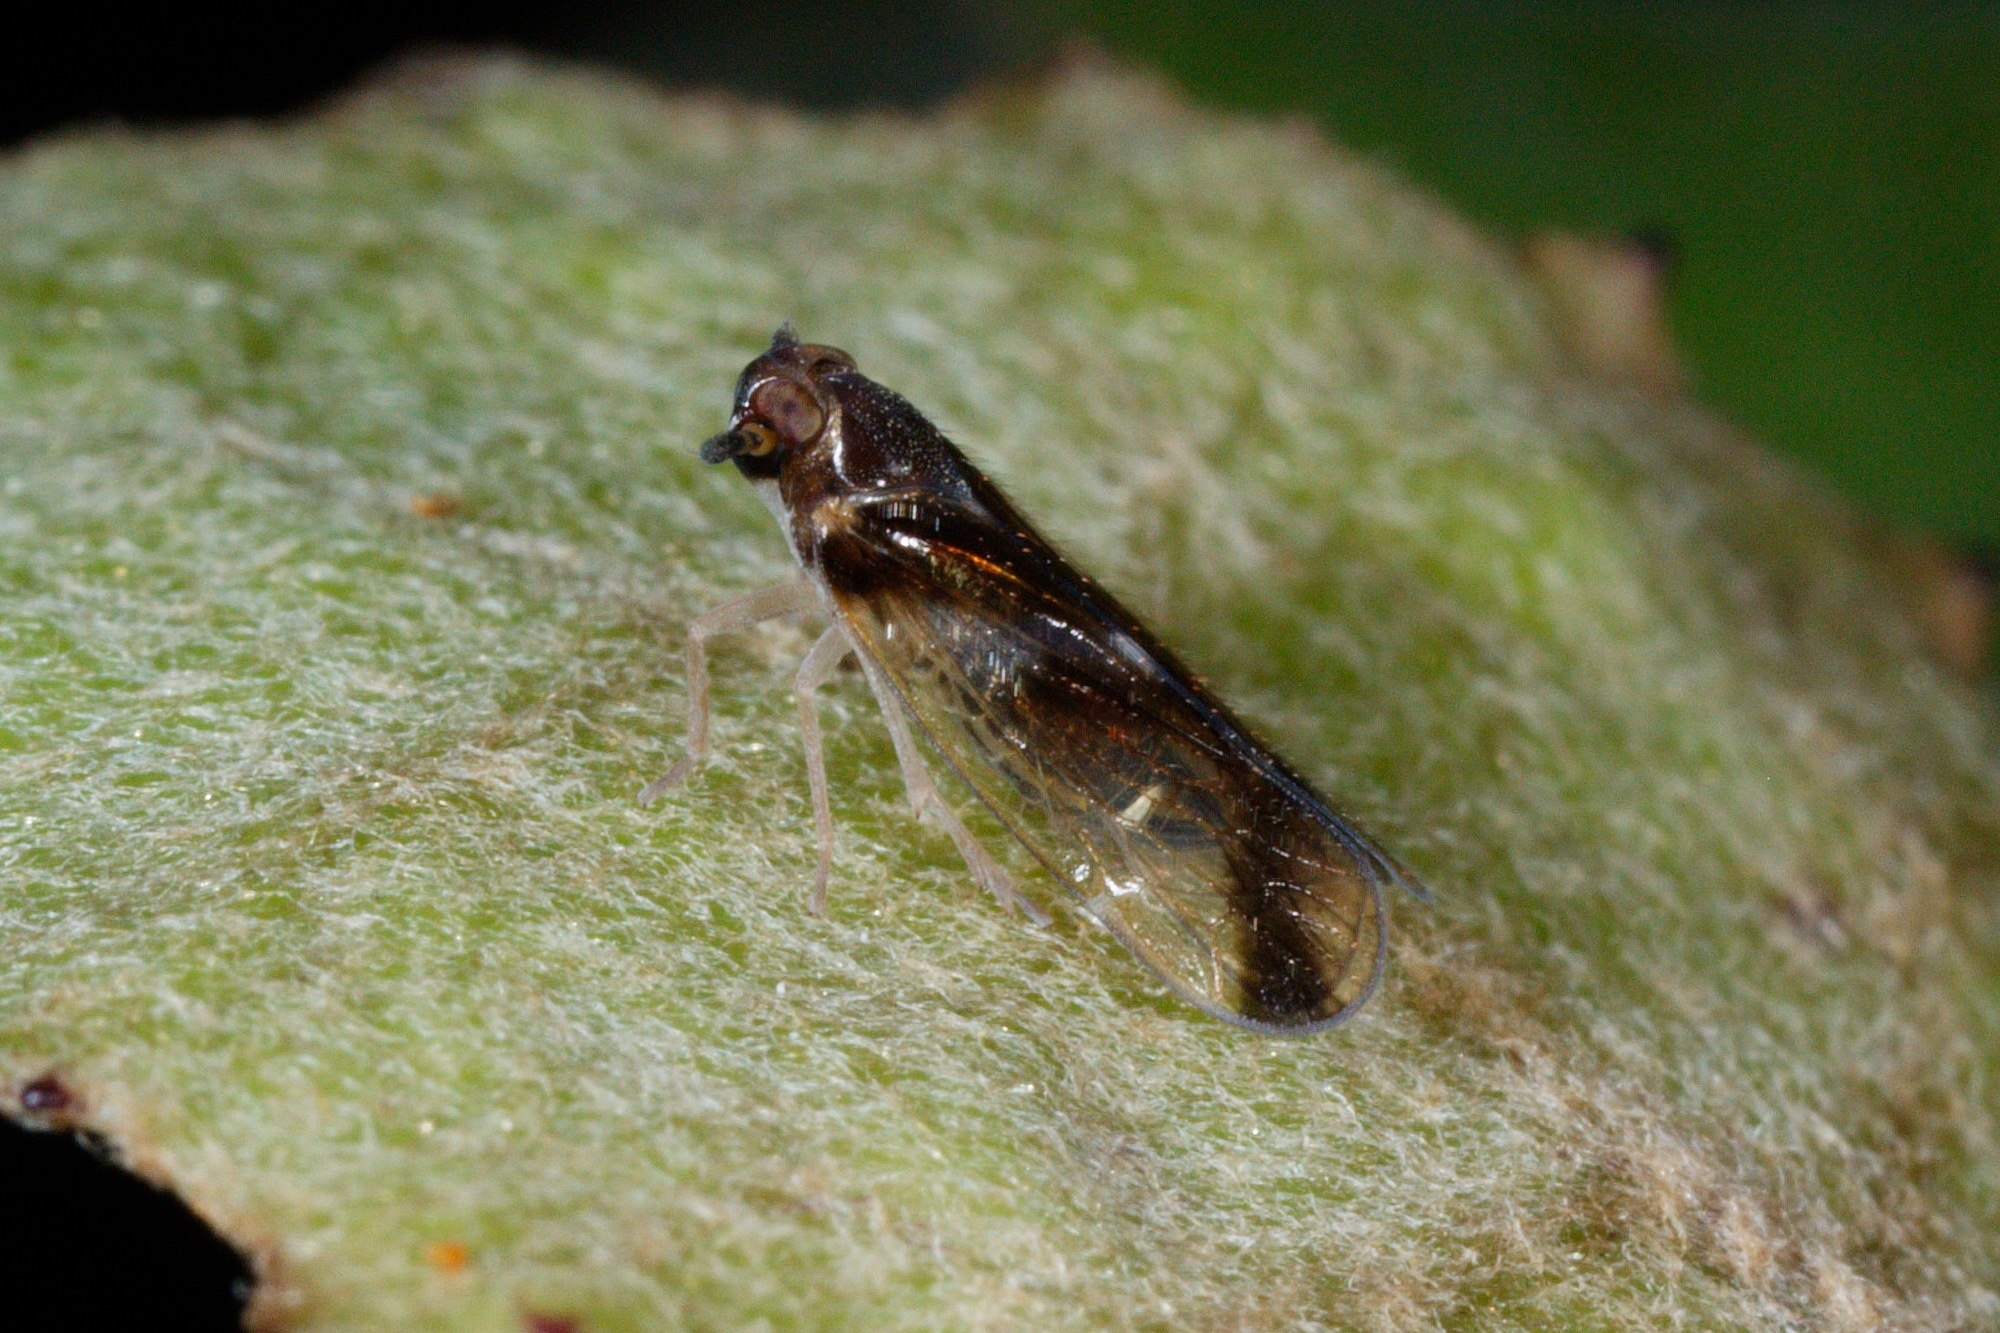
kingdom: Animalia
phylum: Arthropoda
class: Insecta
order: Hemiptera
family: Cixiidae
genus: Tiriteana
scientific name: Tiriteana clarkei
